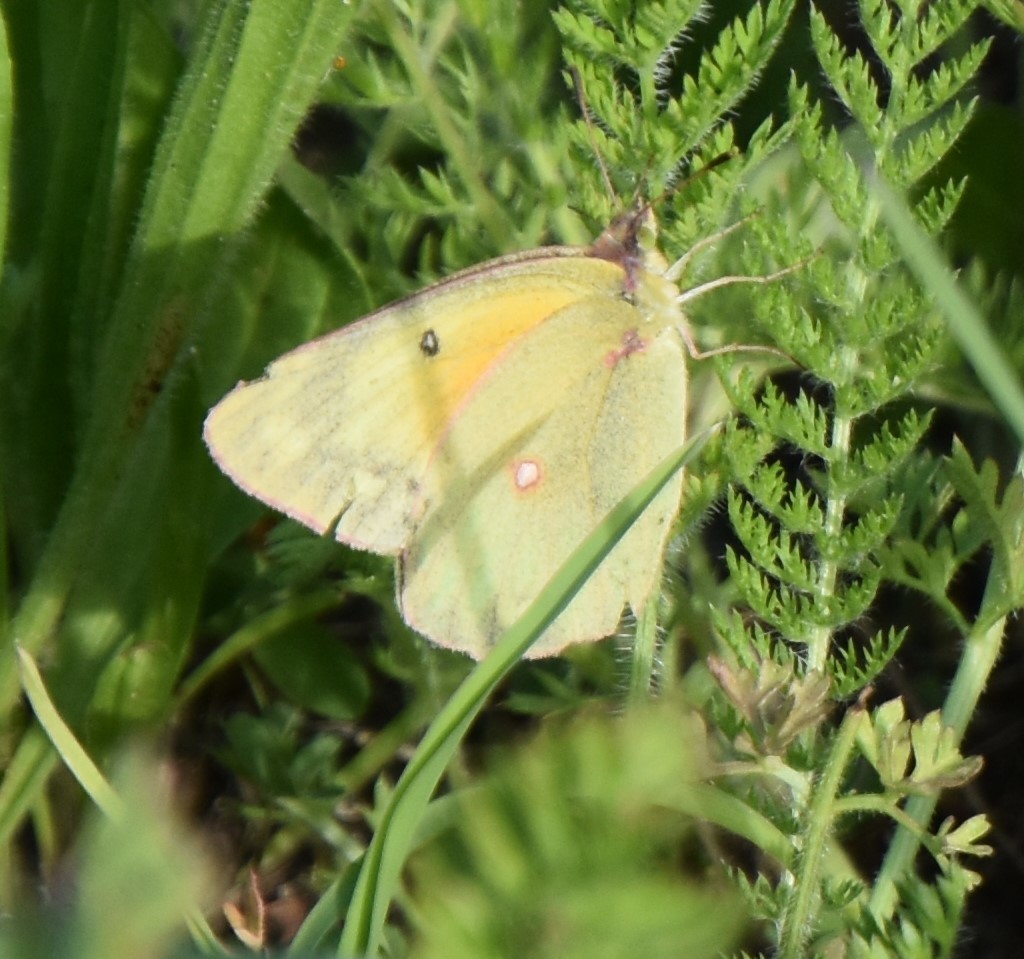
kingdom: Animalia
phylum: Arthropoda
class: Insecta
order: Lepidoptera
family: Pieridae
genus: Colias
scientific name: Colias eurytheme
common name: Alfalfa butterfly
